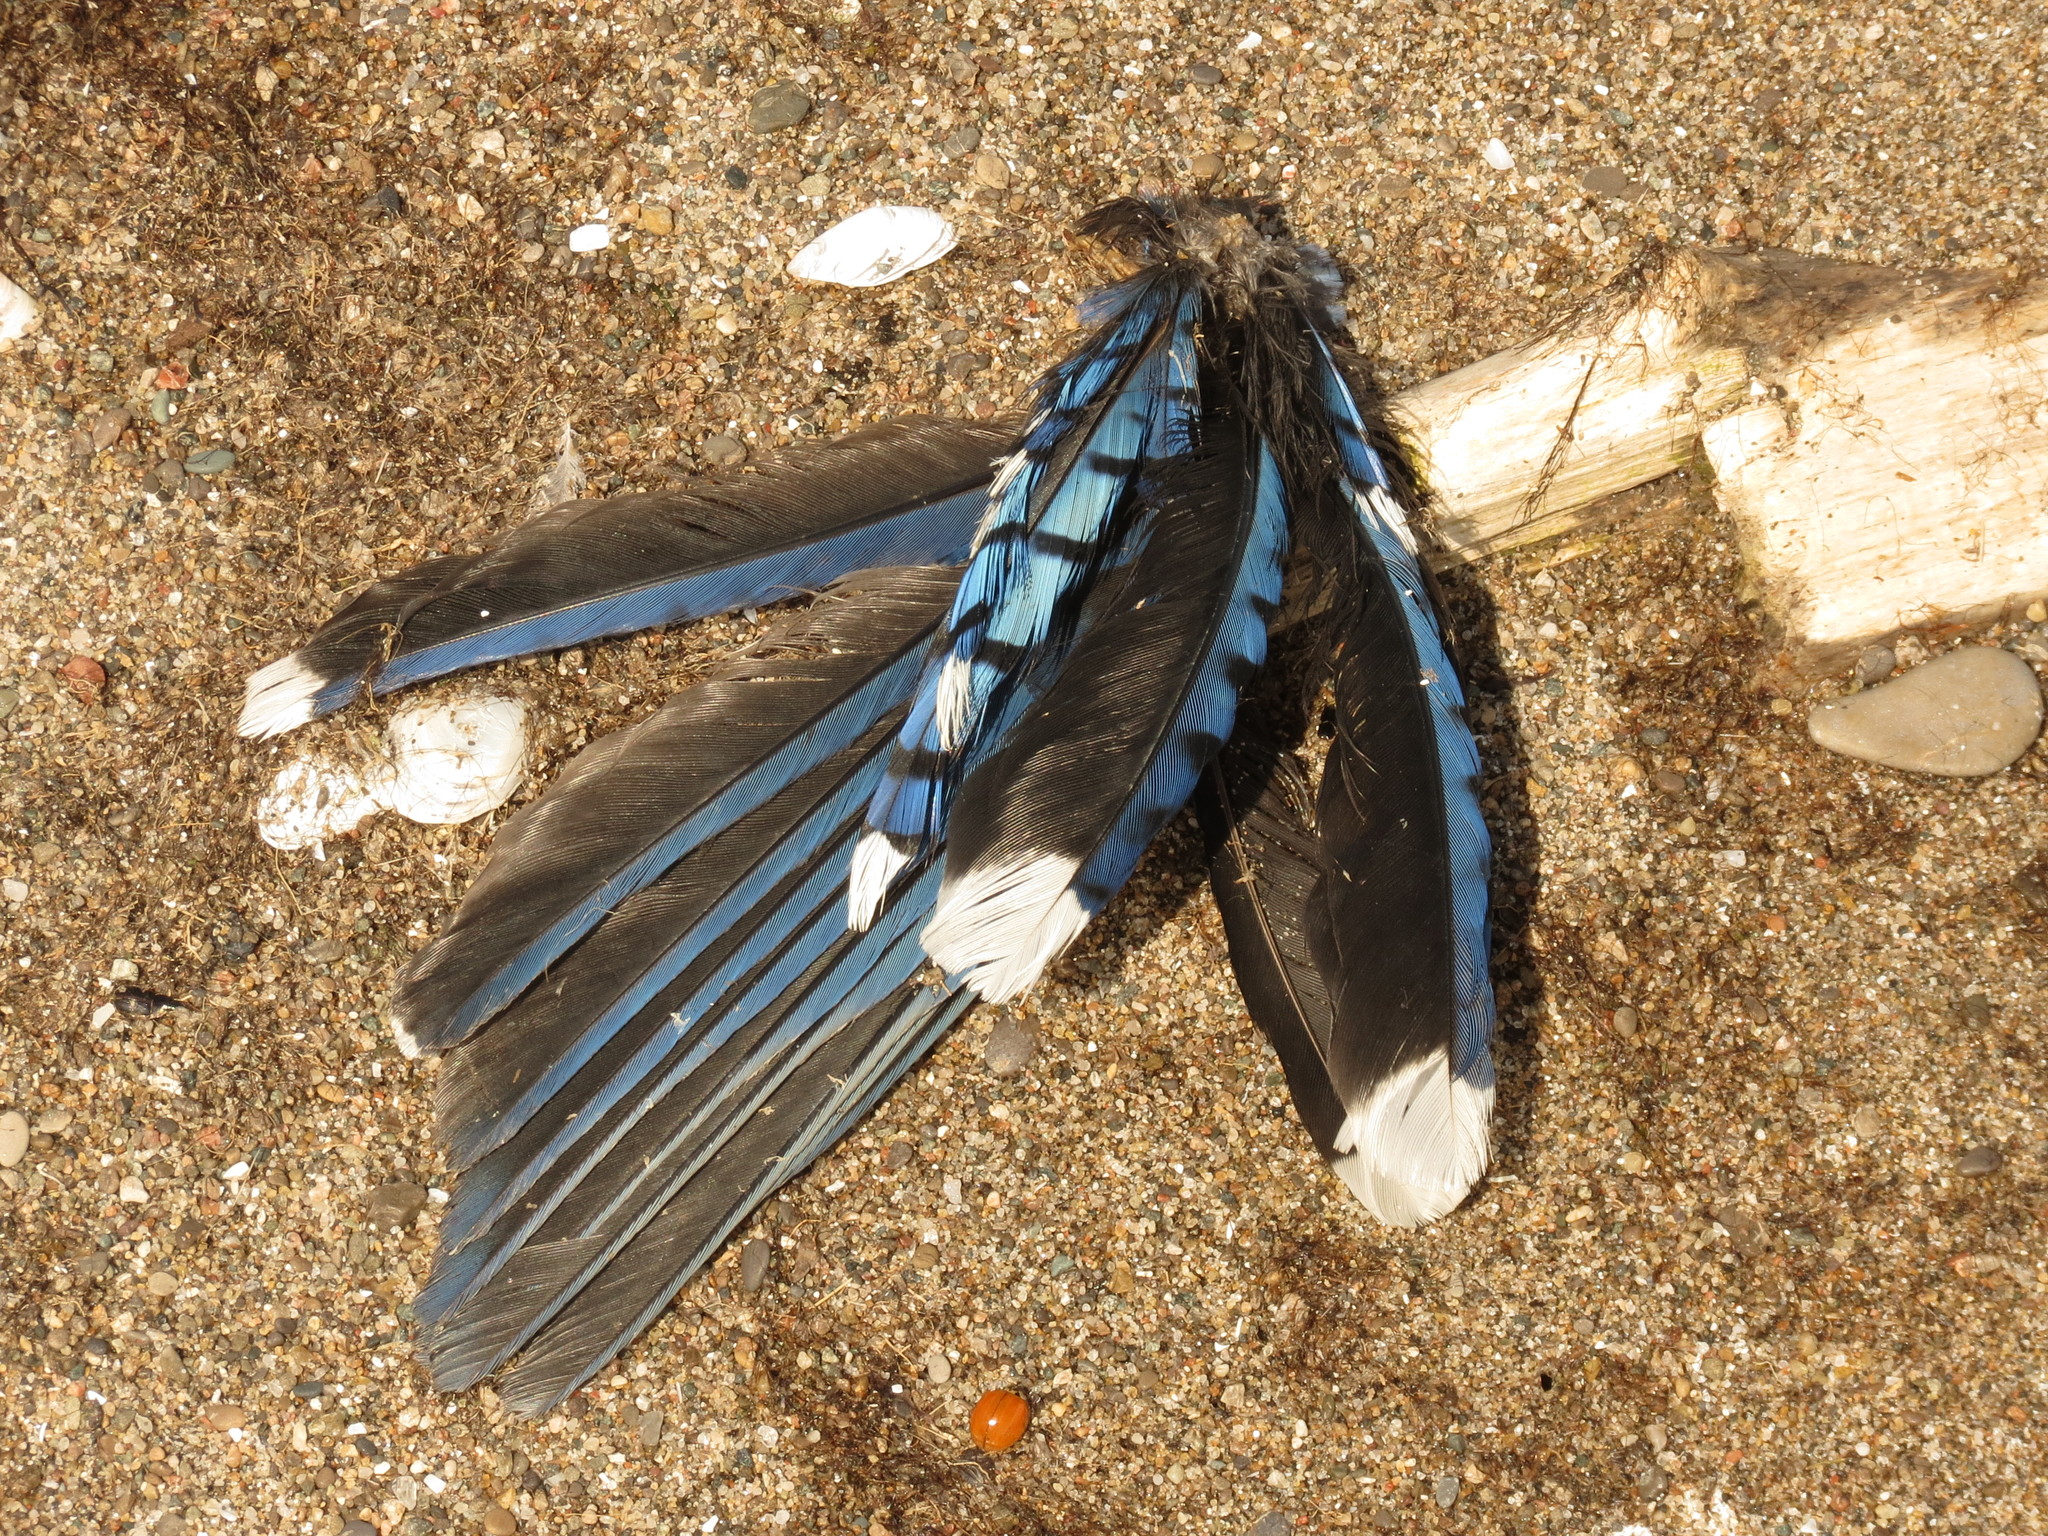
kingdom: Animalia
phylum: Chordata
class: Aves
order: Passeriformes
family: Corvidae
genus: Cyanocitta
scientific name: Cyanocitta cristata
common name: Blue jay
